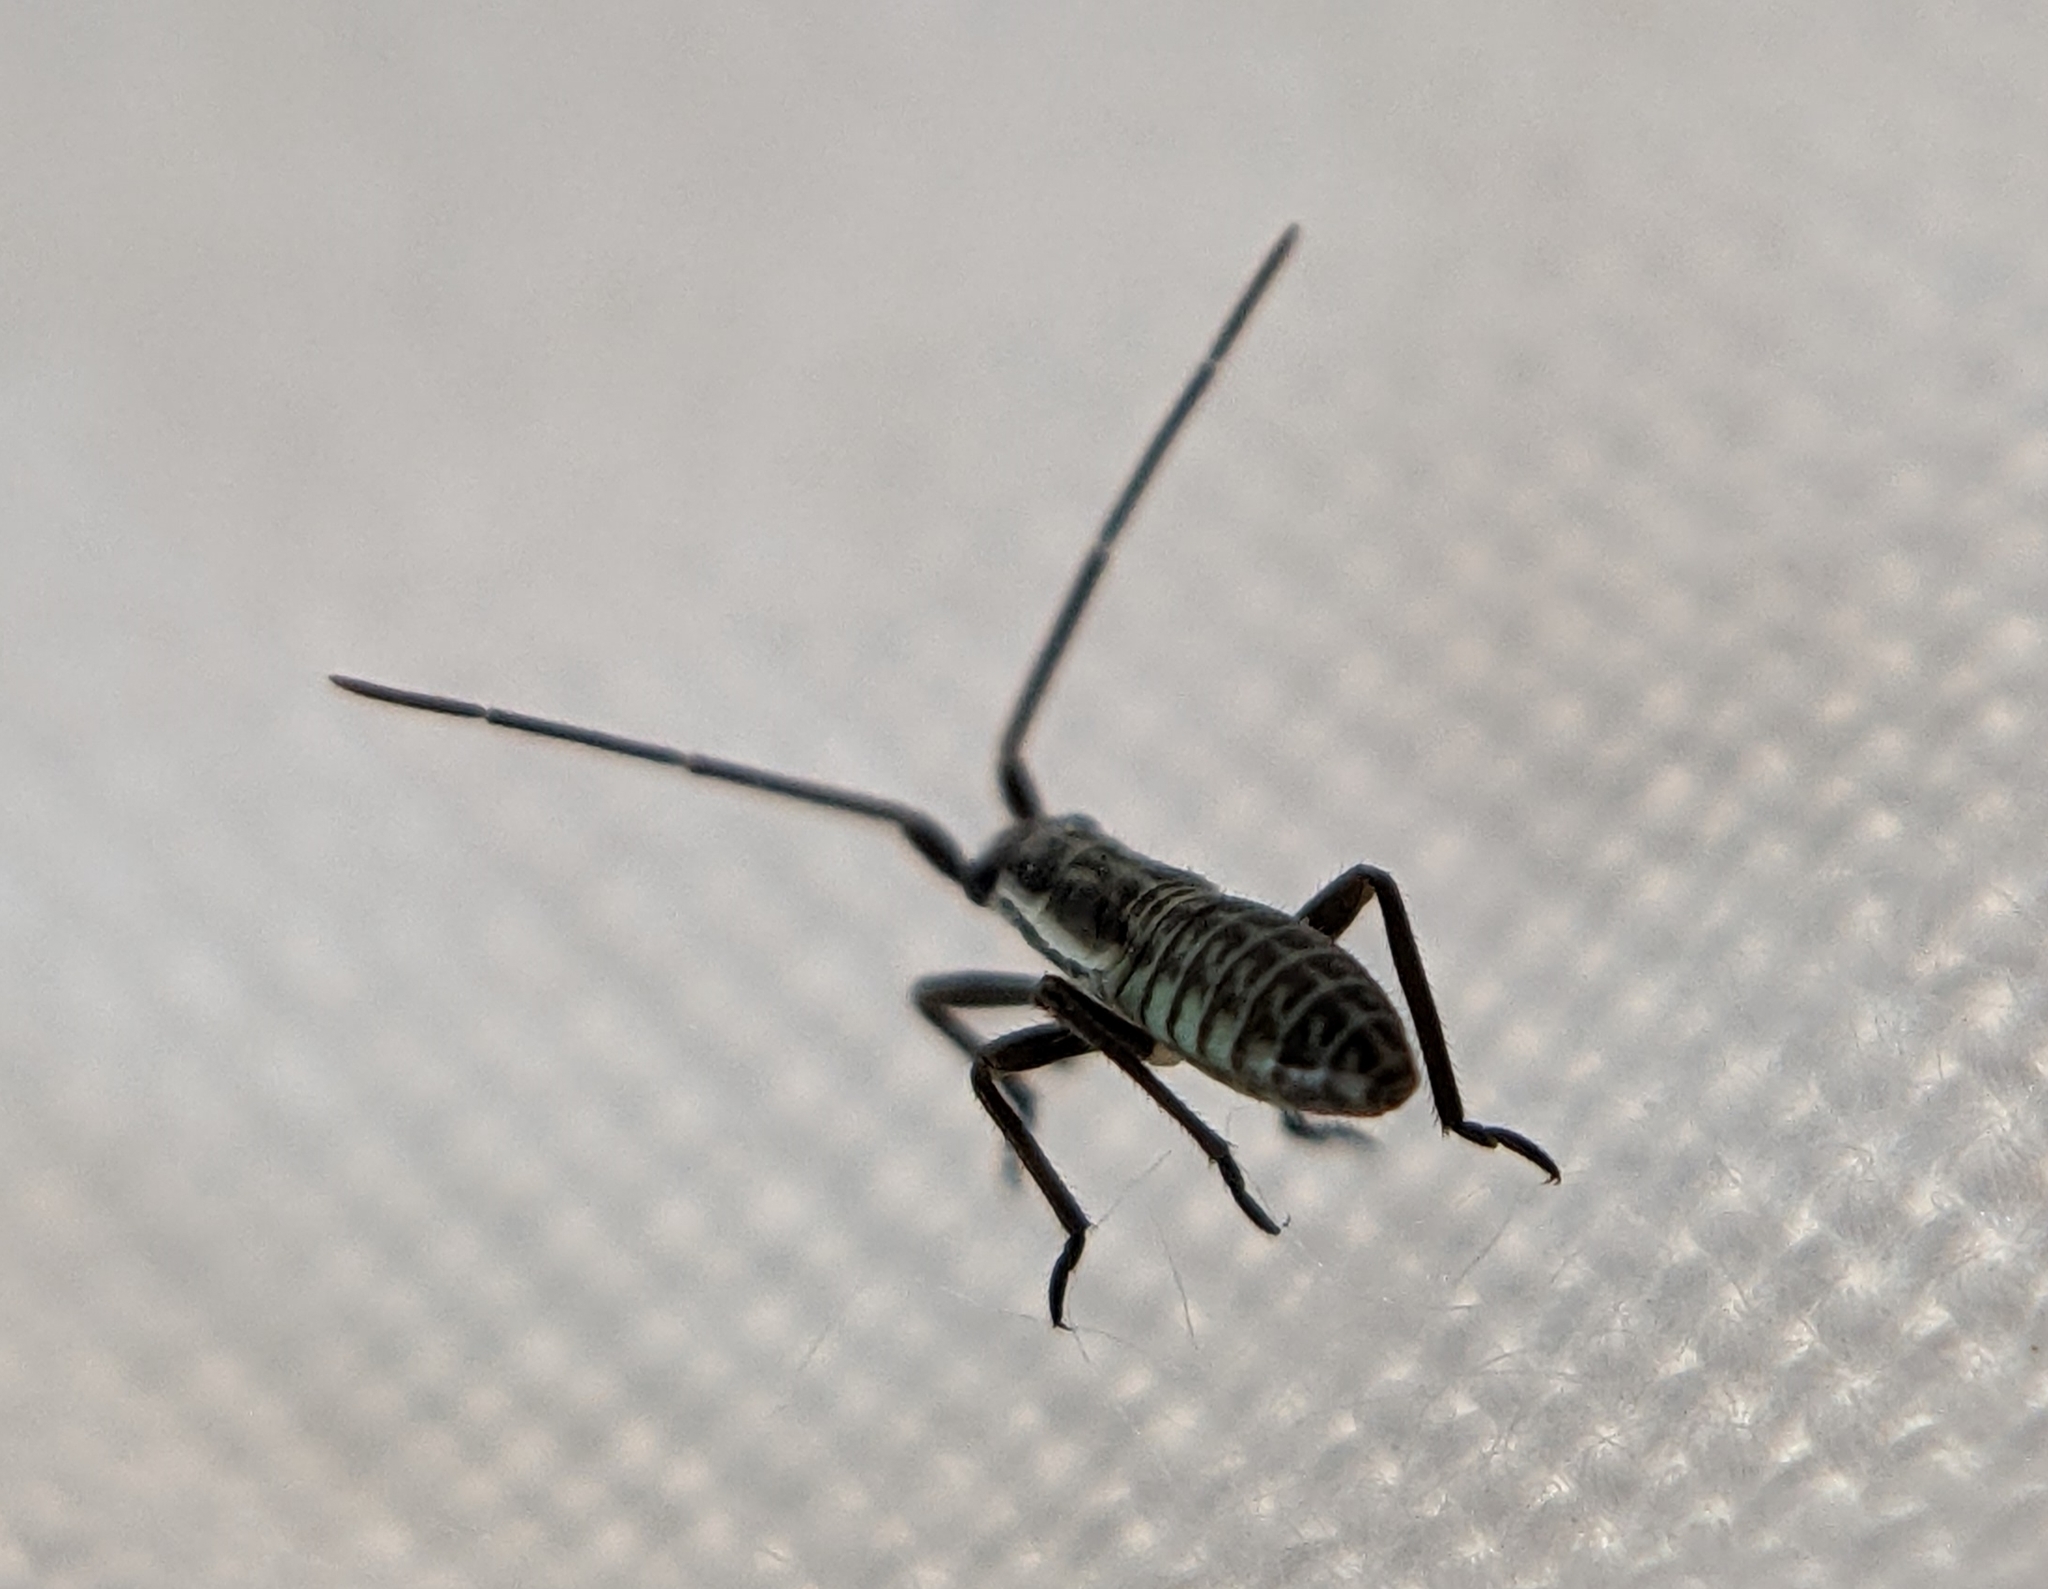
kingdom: Animalia
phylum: Arthropoda
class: Insecta
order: Hemiptera
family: Miridae
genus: Leptopterna
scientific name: Leptopterna dolabrata
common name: Meadow plant bug
